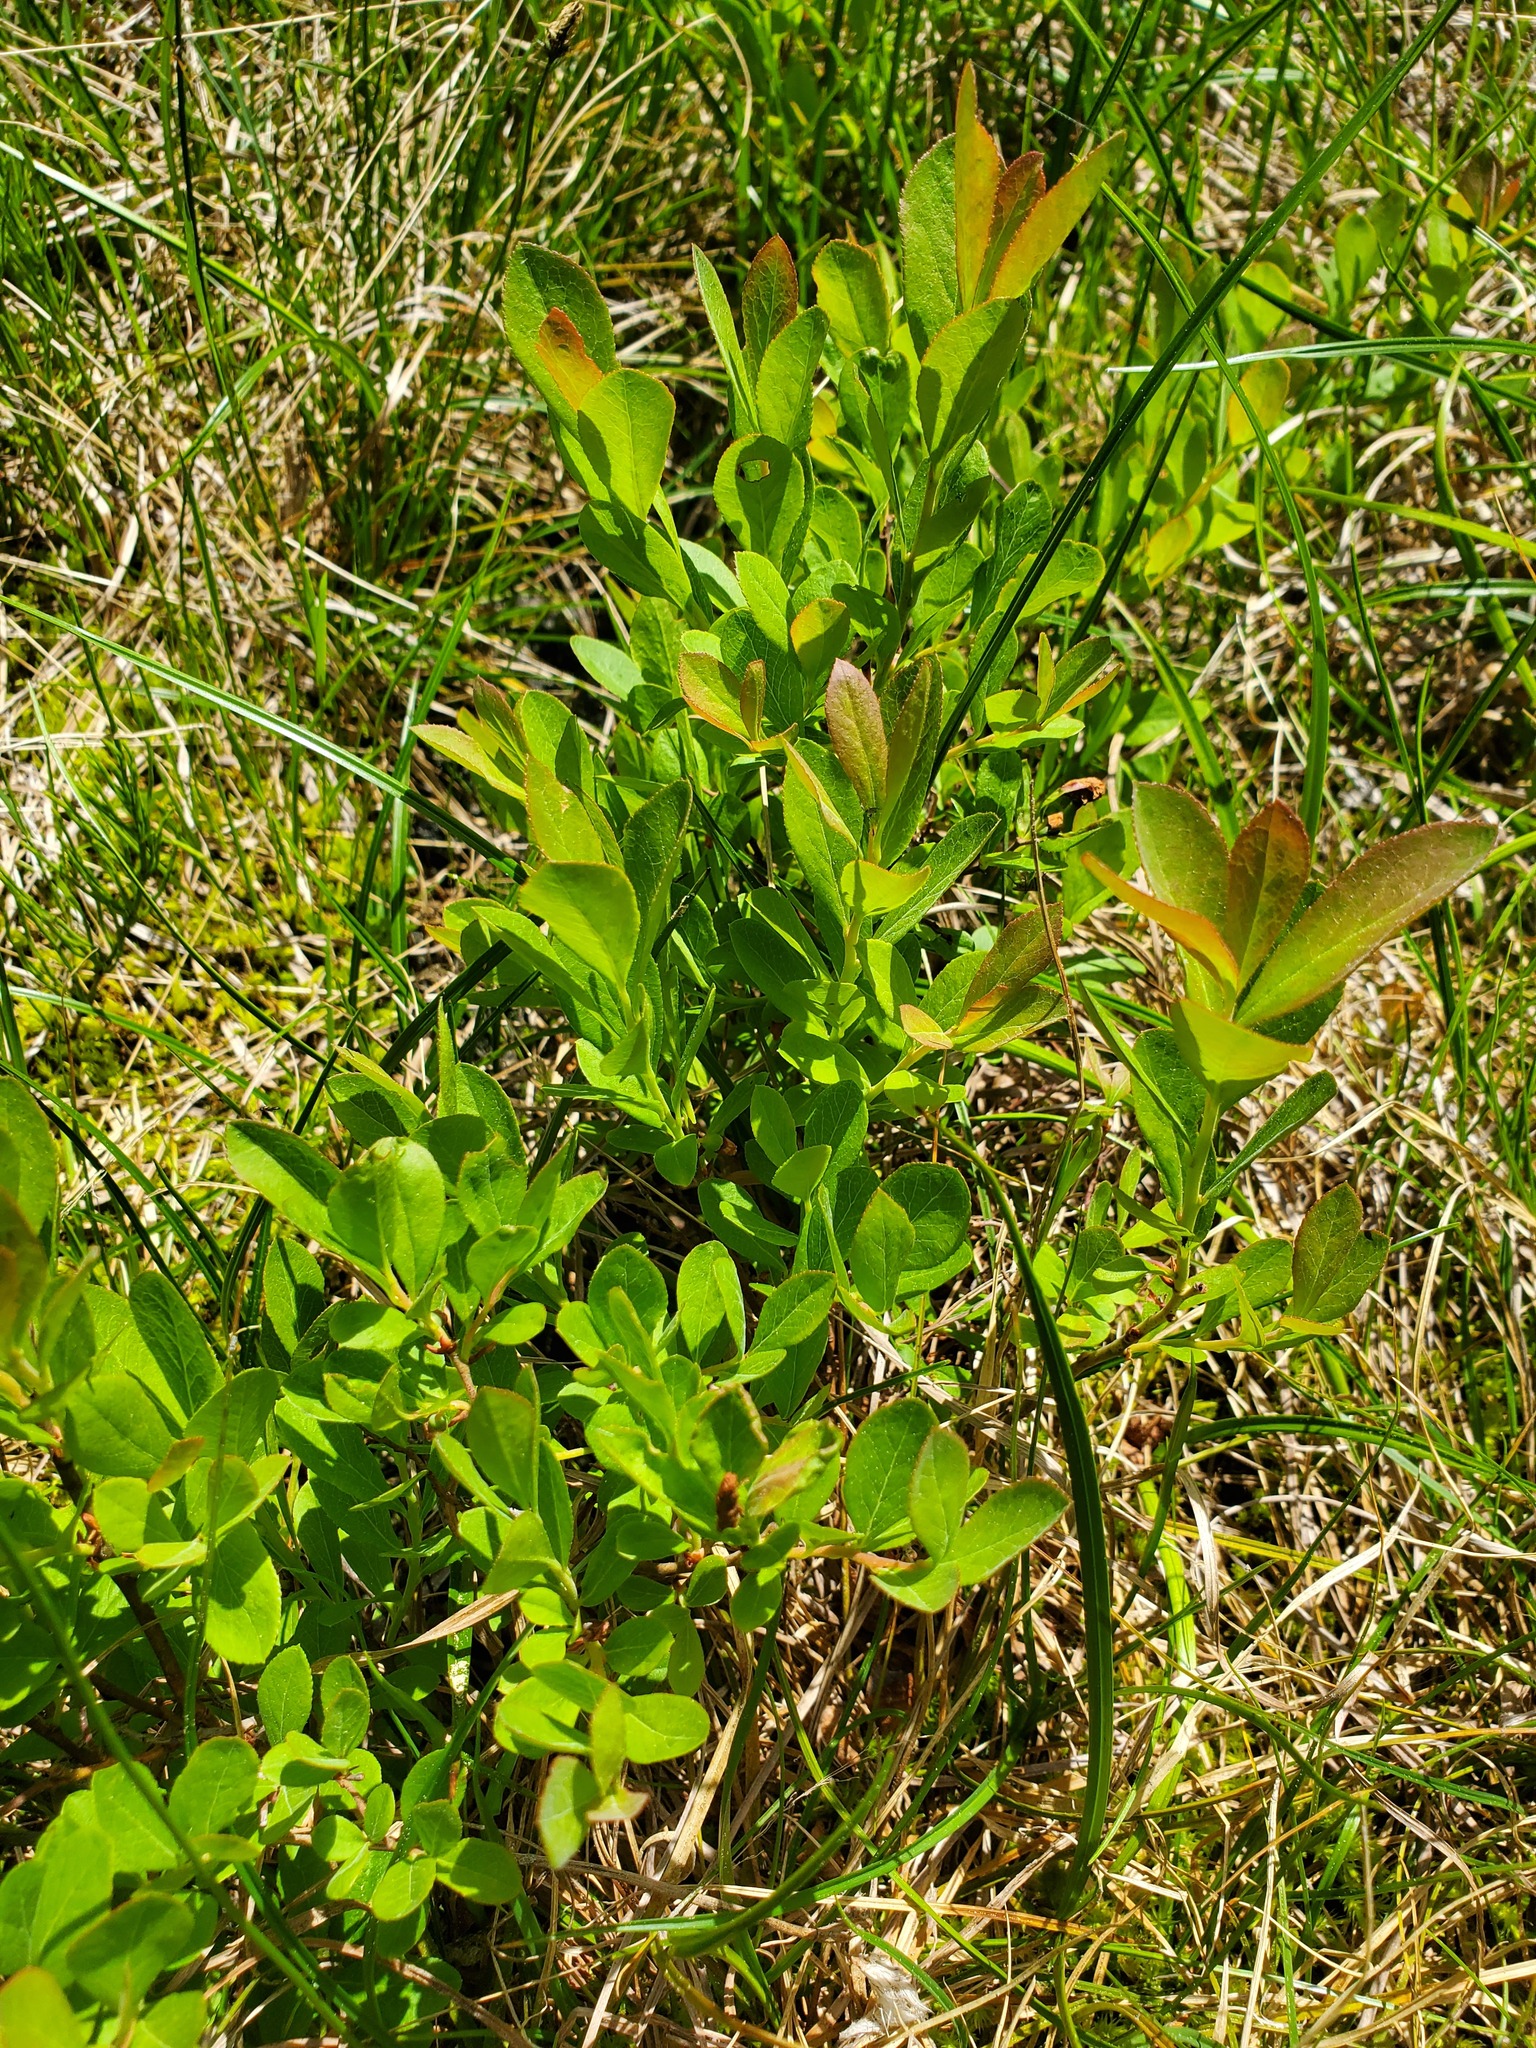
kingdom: Plantae
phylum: Tracheophyta
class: Magnoliopsida
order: Ericales
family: Ericaceae
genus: Vaccinium
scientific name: Vaccinium cespitosum
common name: Dwarf bilberry
